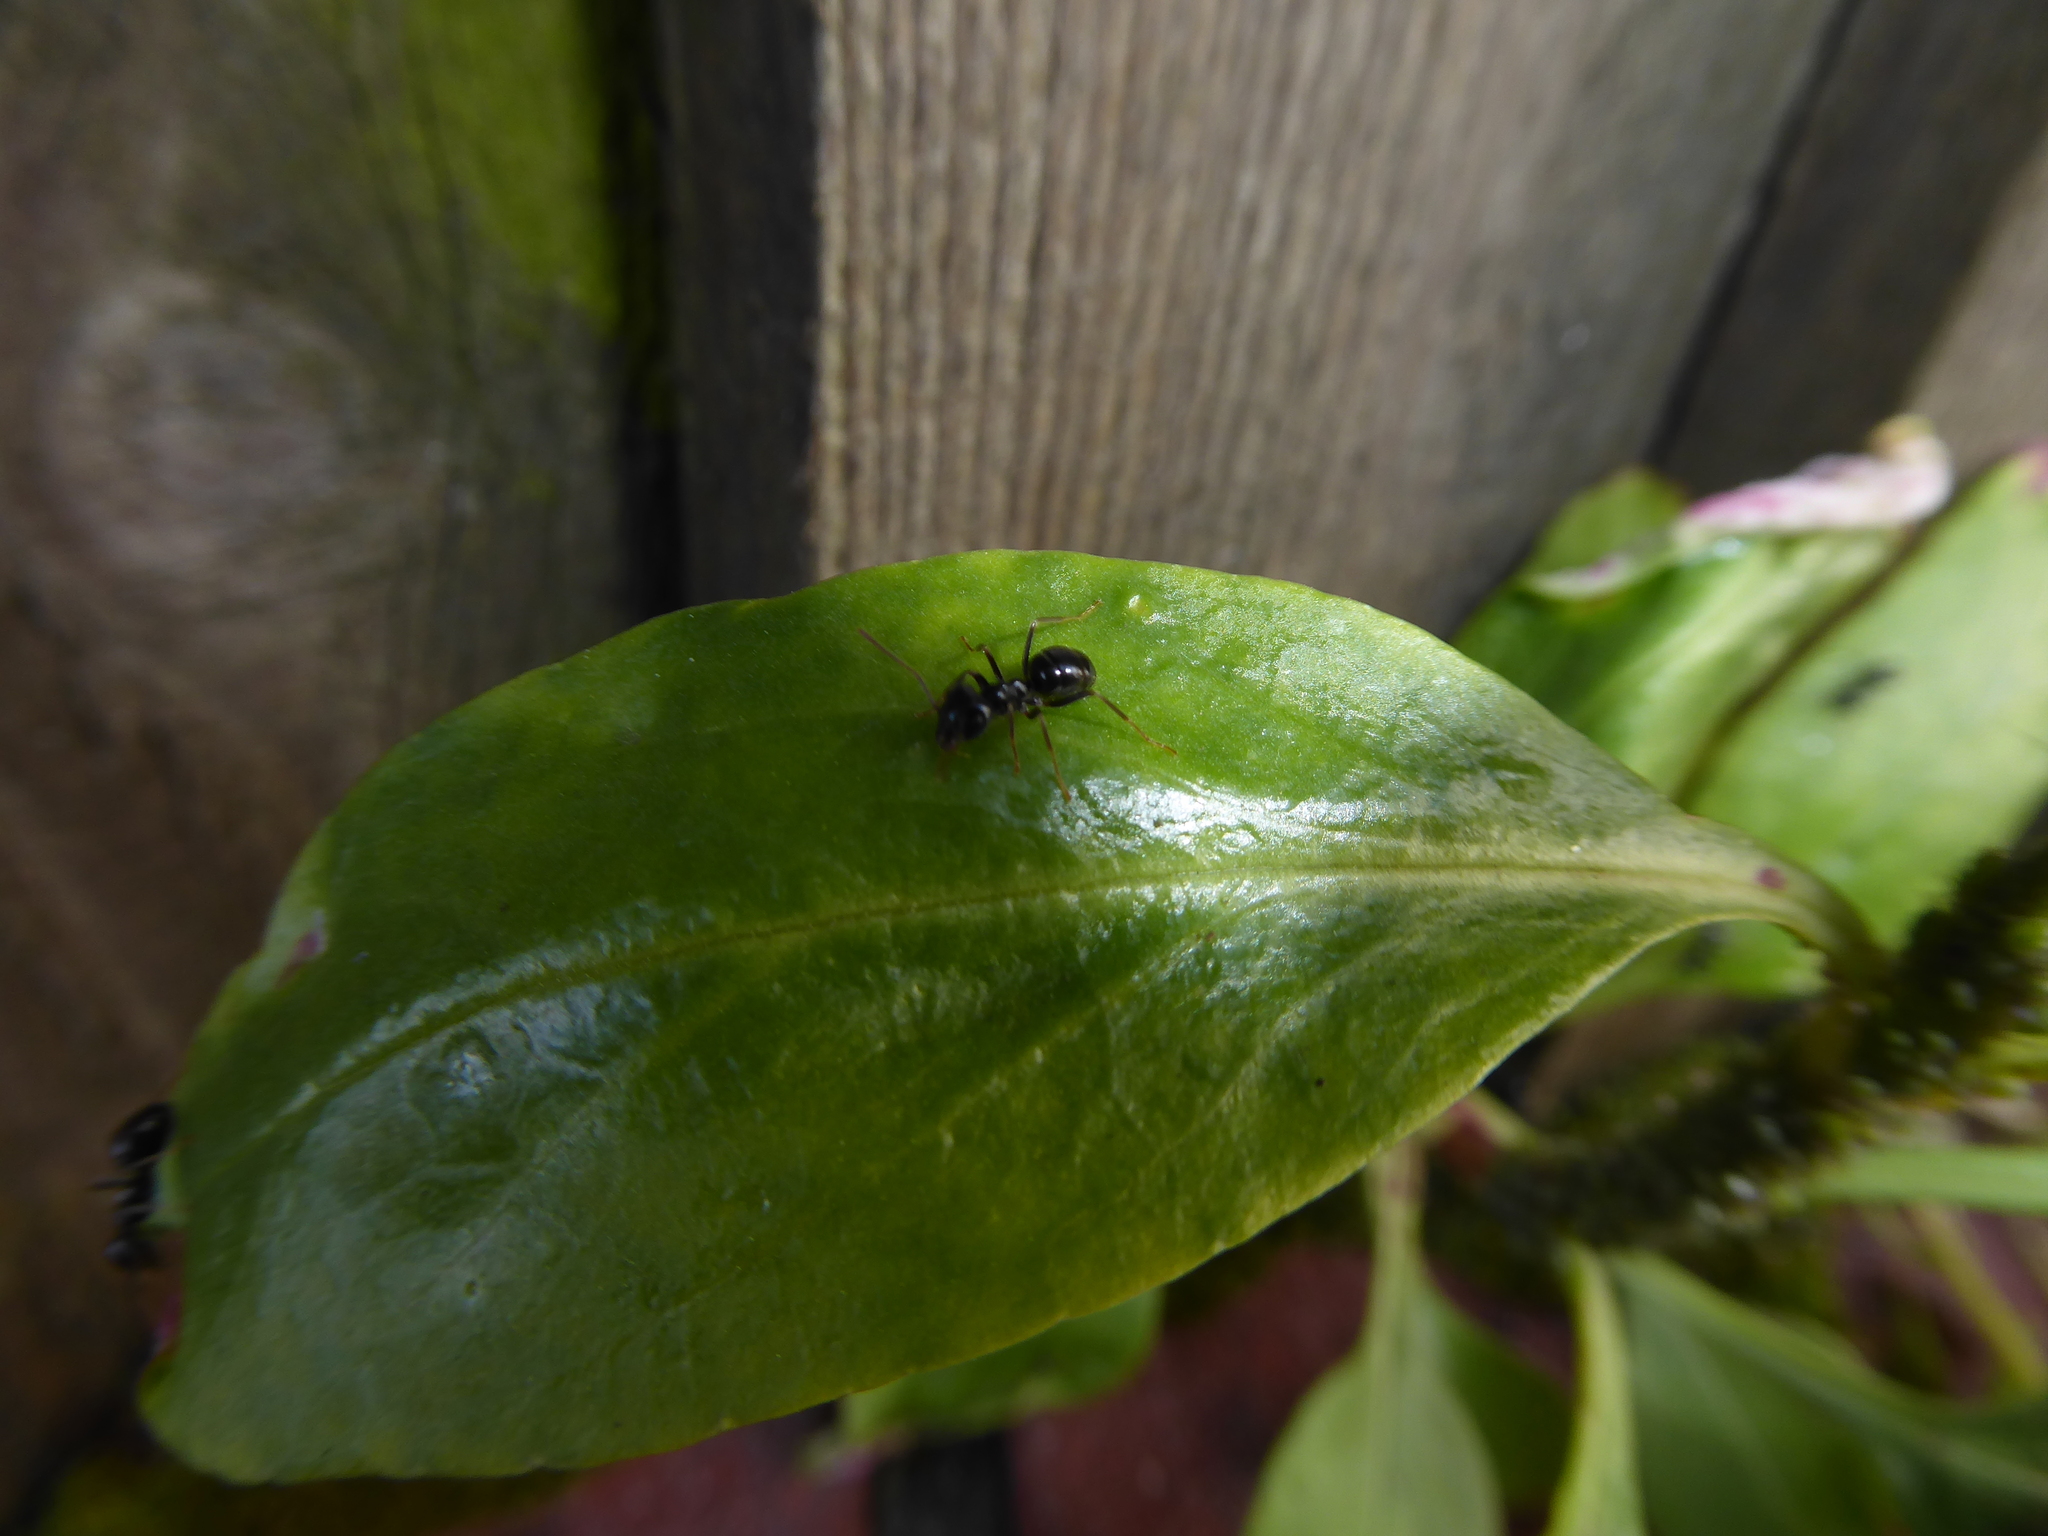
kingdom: Animalia
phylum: Arthropoda
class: Insecta
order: Hymenoptera
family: Formicidae
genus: Lasius
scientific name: Lasius fuliginosus
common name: Jet ant
